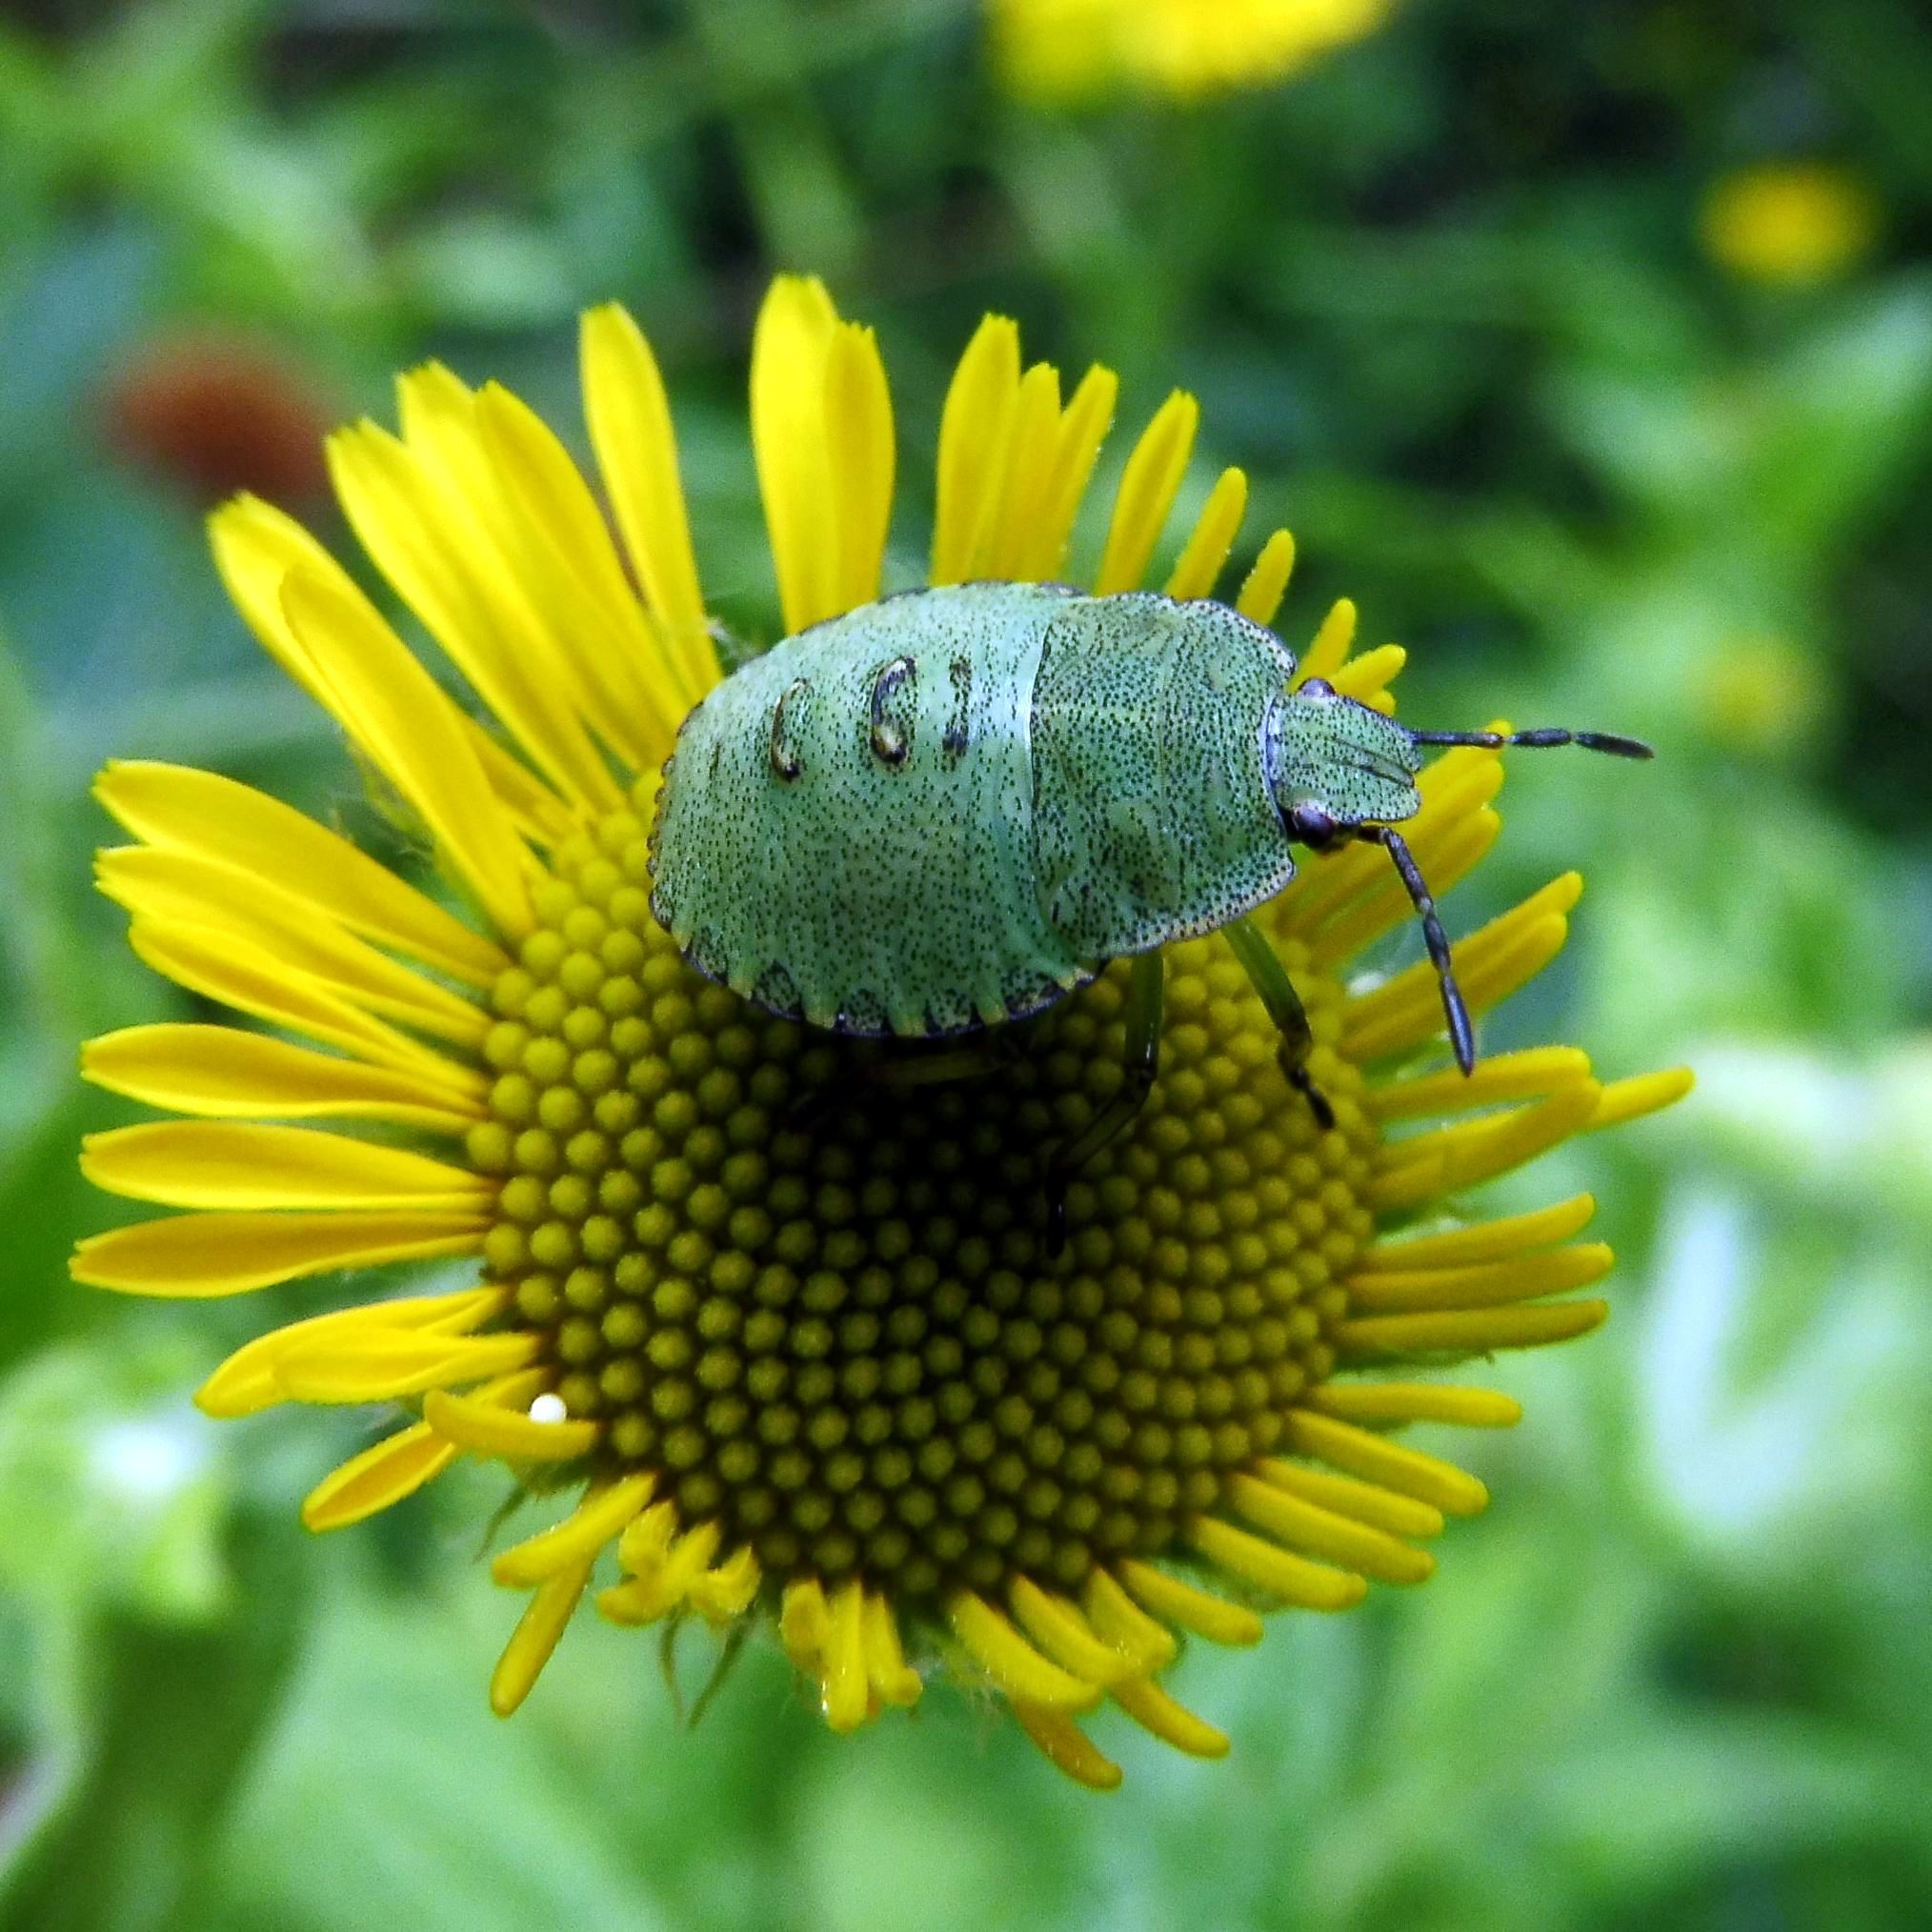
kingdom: Animalia
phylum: Arthropoda
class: Insecta
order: Hemiptera
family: Pentatomidae
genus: Palomena
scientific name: Palomena prasina
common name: Green shieldbug
